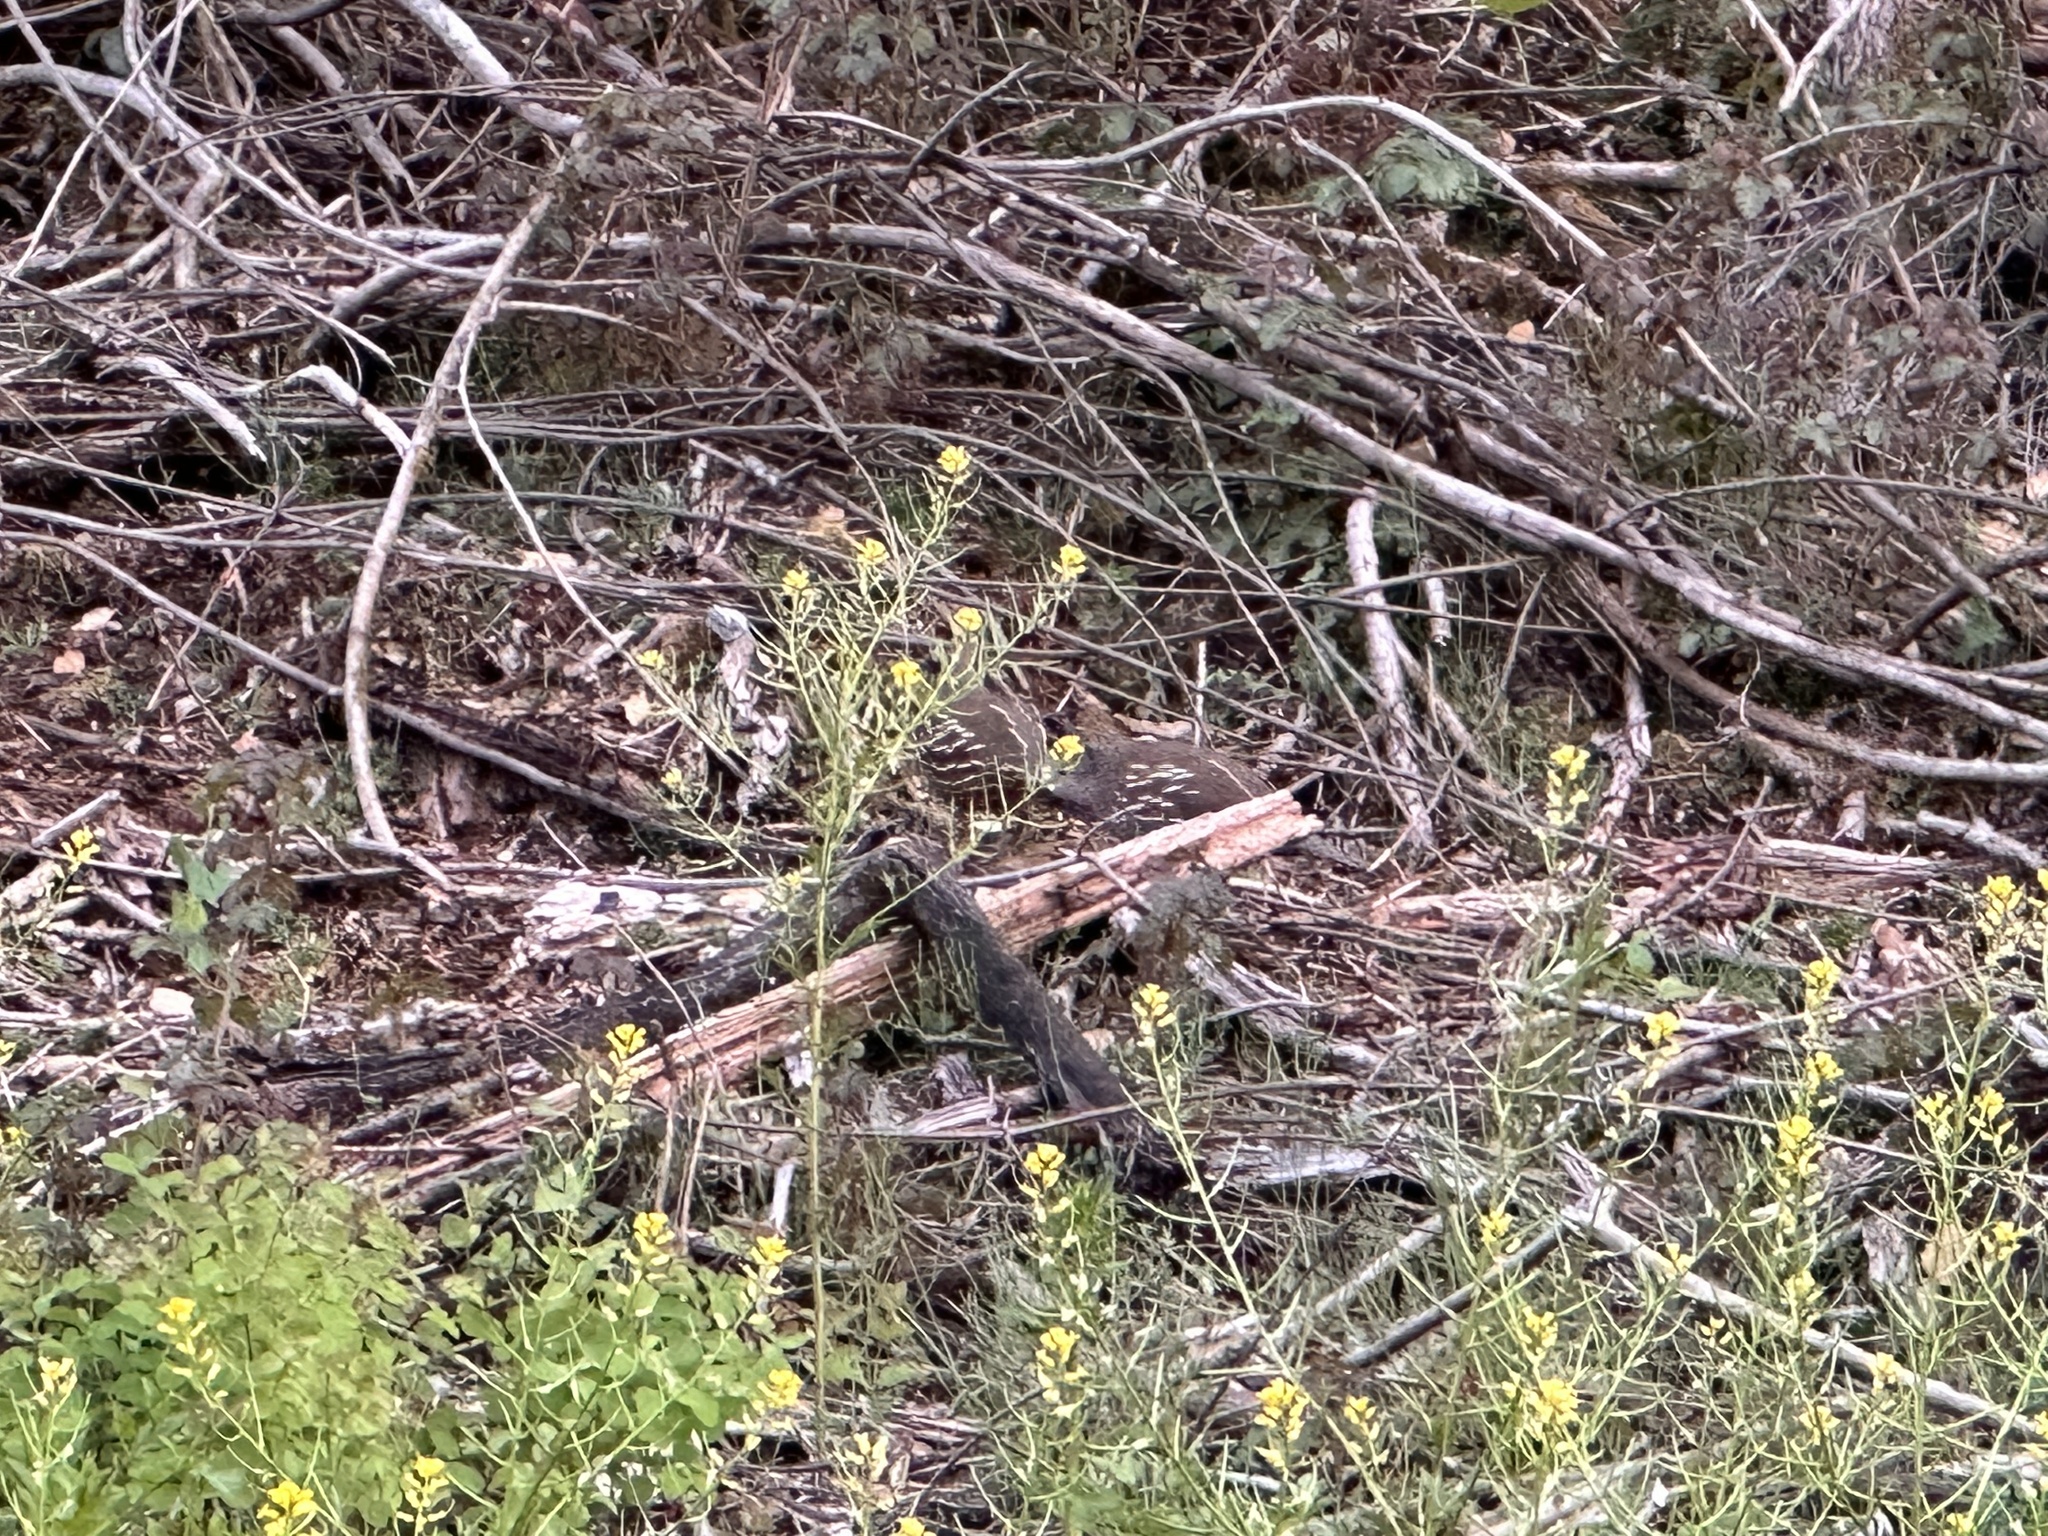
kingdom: Animalia
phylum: Chordata
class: Aves
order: Galliformes
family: Odontophoridae
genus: Callipepla
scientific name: Callipepla californica
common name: California quail
